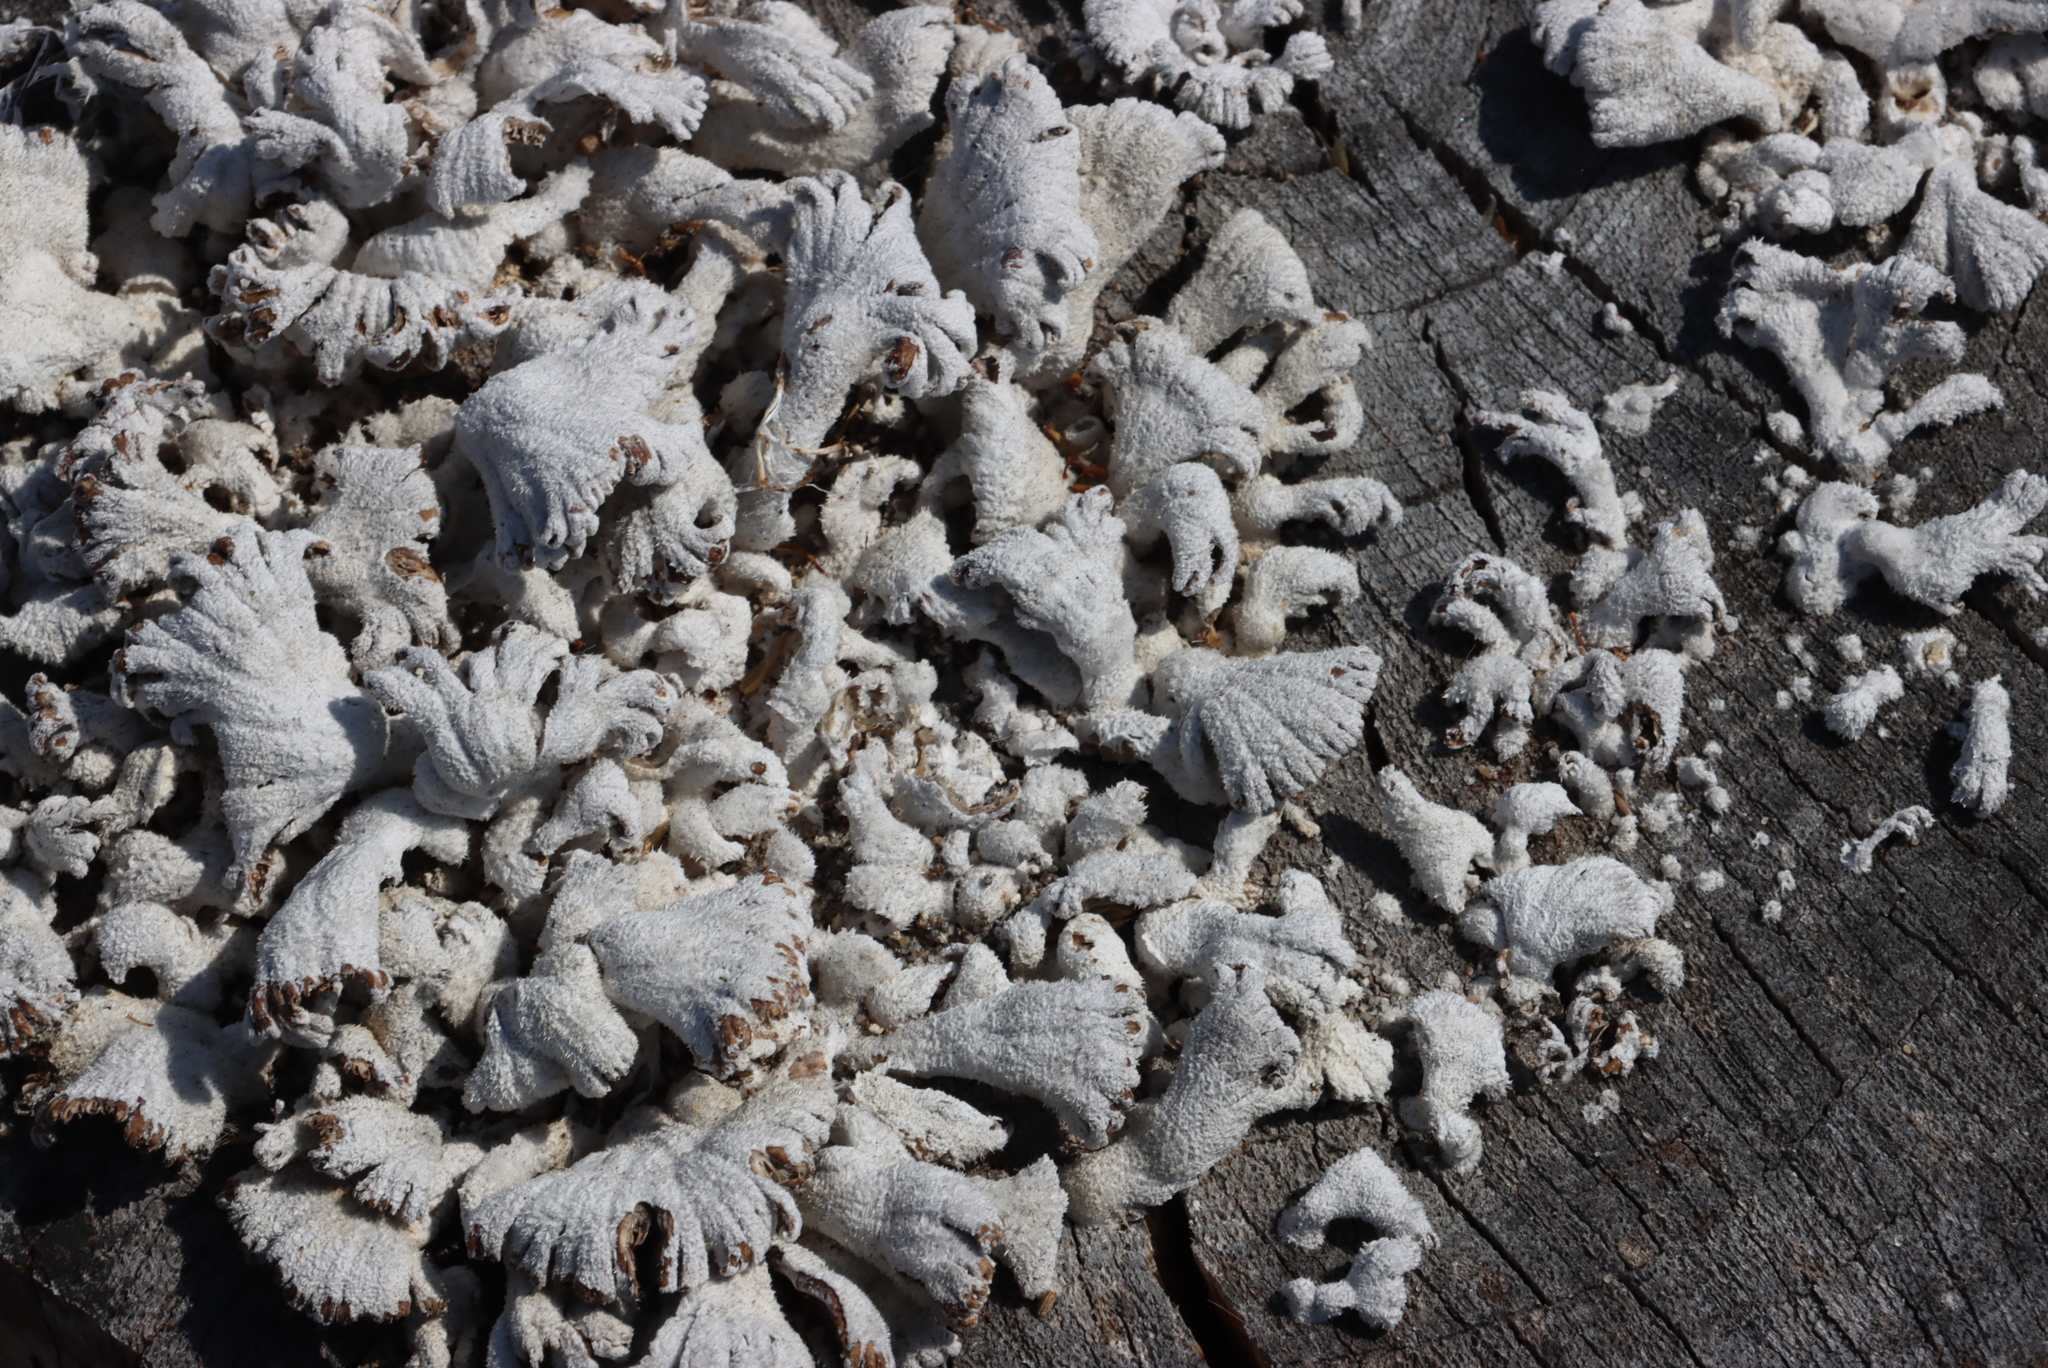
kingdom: Fungi
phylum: Basidiomycota
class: Agaricomycetes
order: Agaricales
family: Schizophyllaceae
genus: Schizophyllum
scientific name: Schizophyllum commune
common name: Common porecrust
